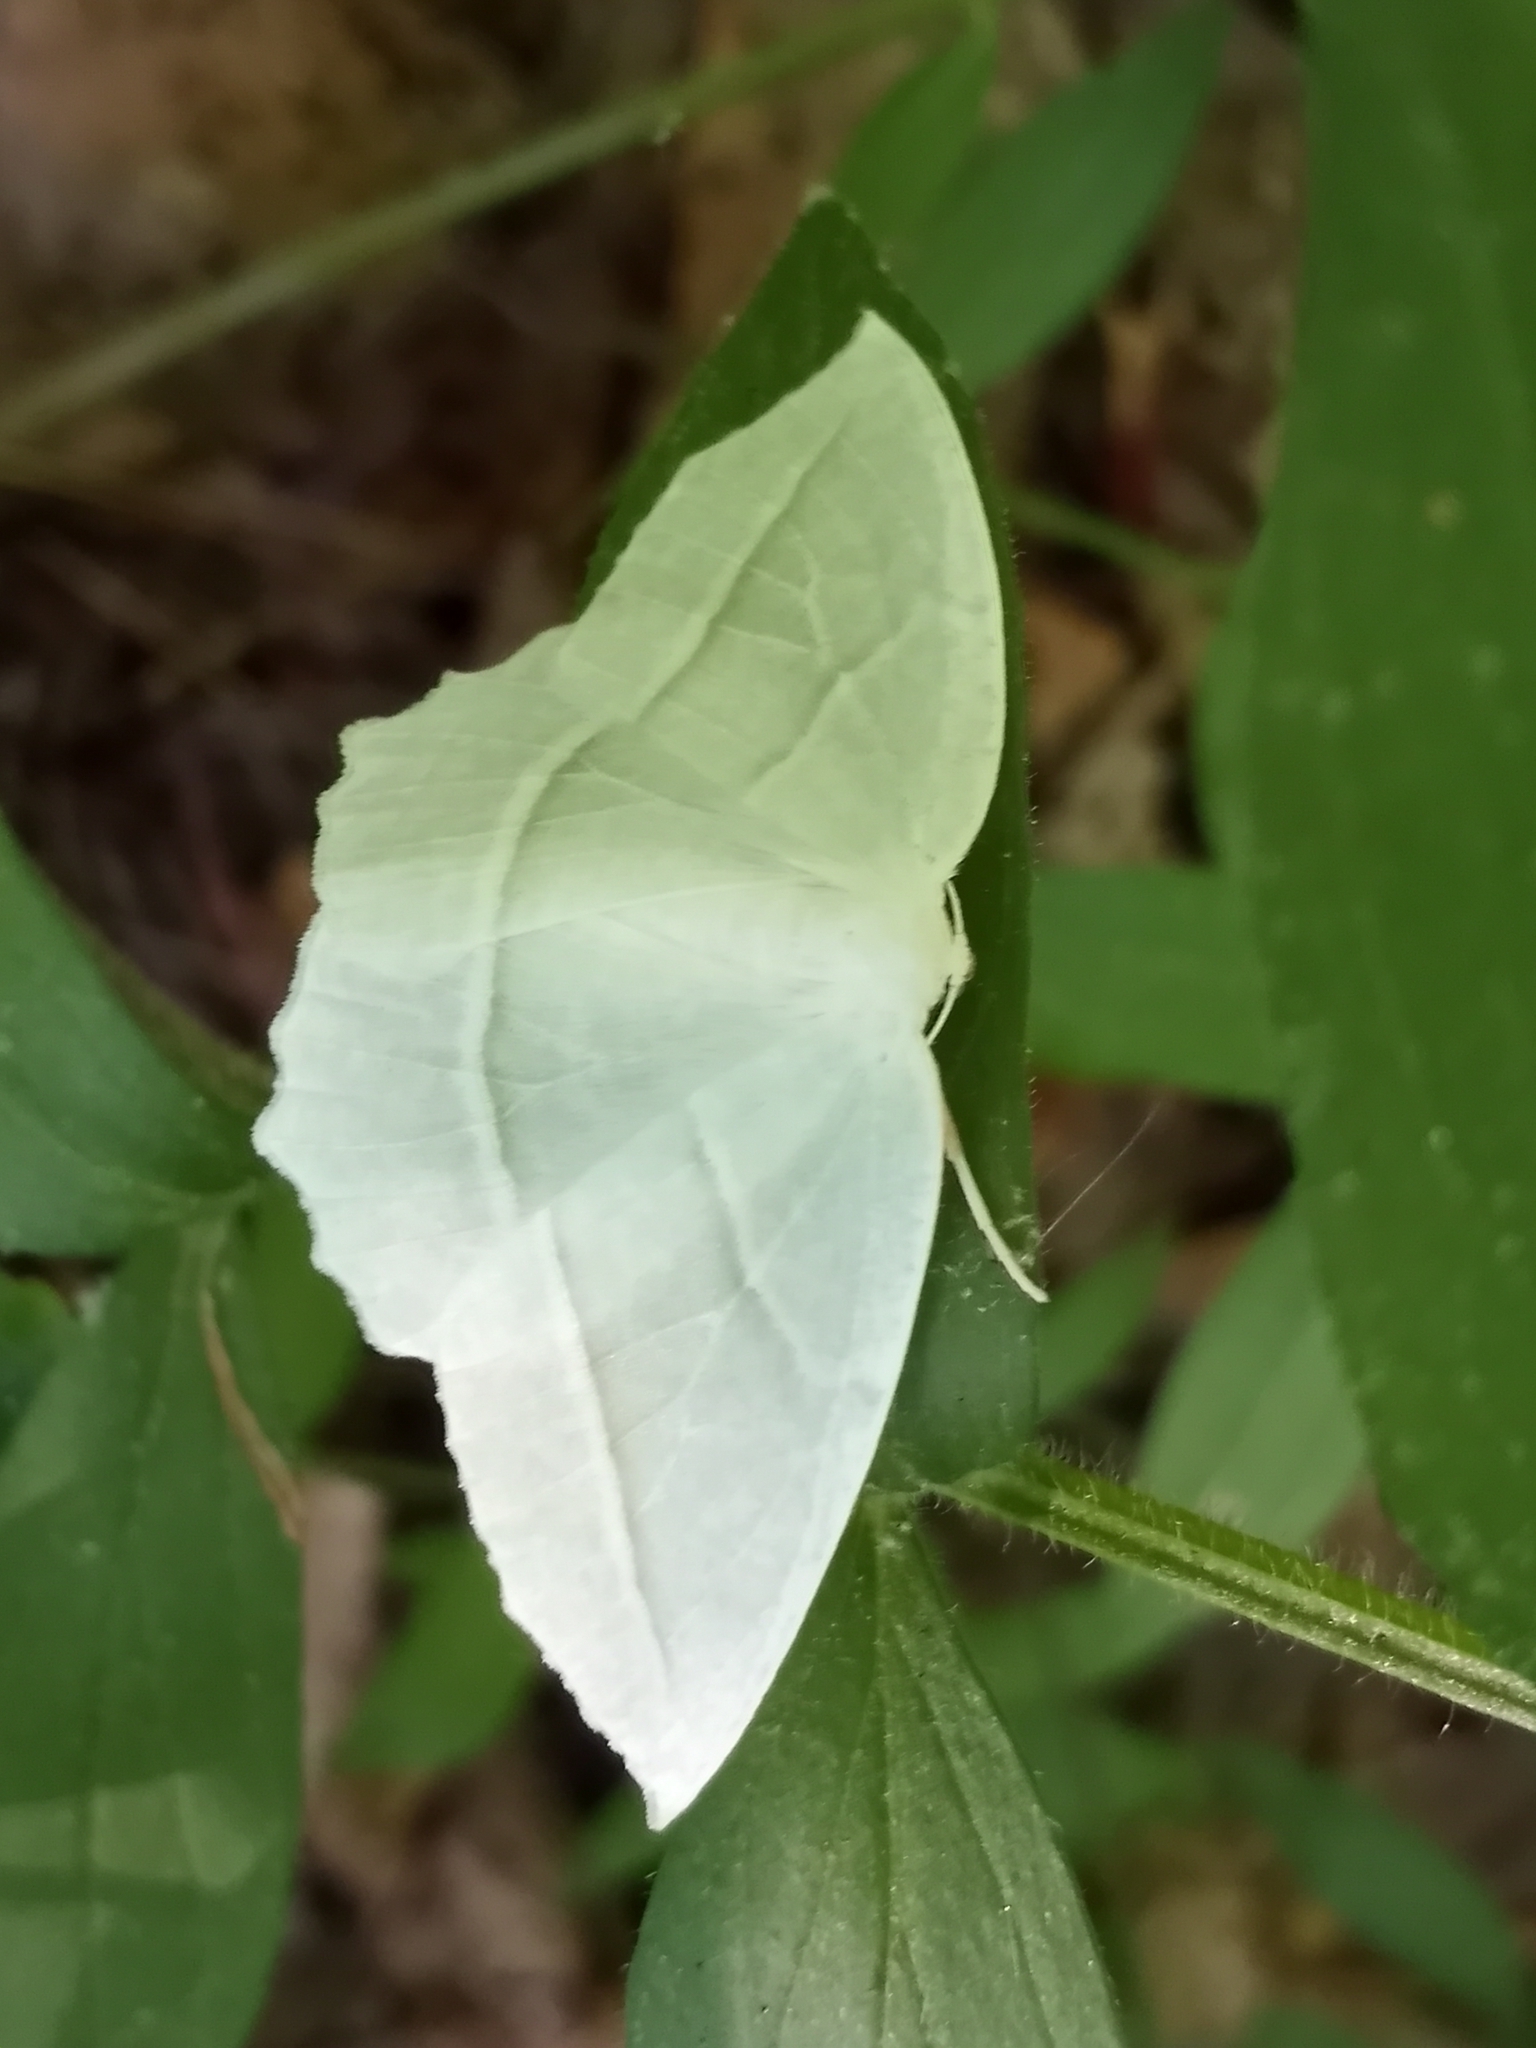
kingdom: Animalia
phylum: Arthropoda
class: Insecta
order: Lepidoptera
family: Geometridae
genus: Campaea
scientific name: Campaea perlata
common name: Fringed looper
